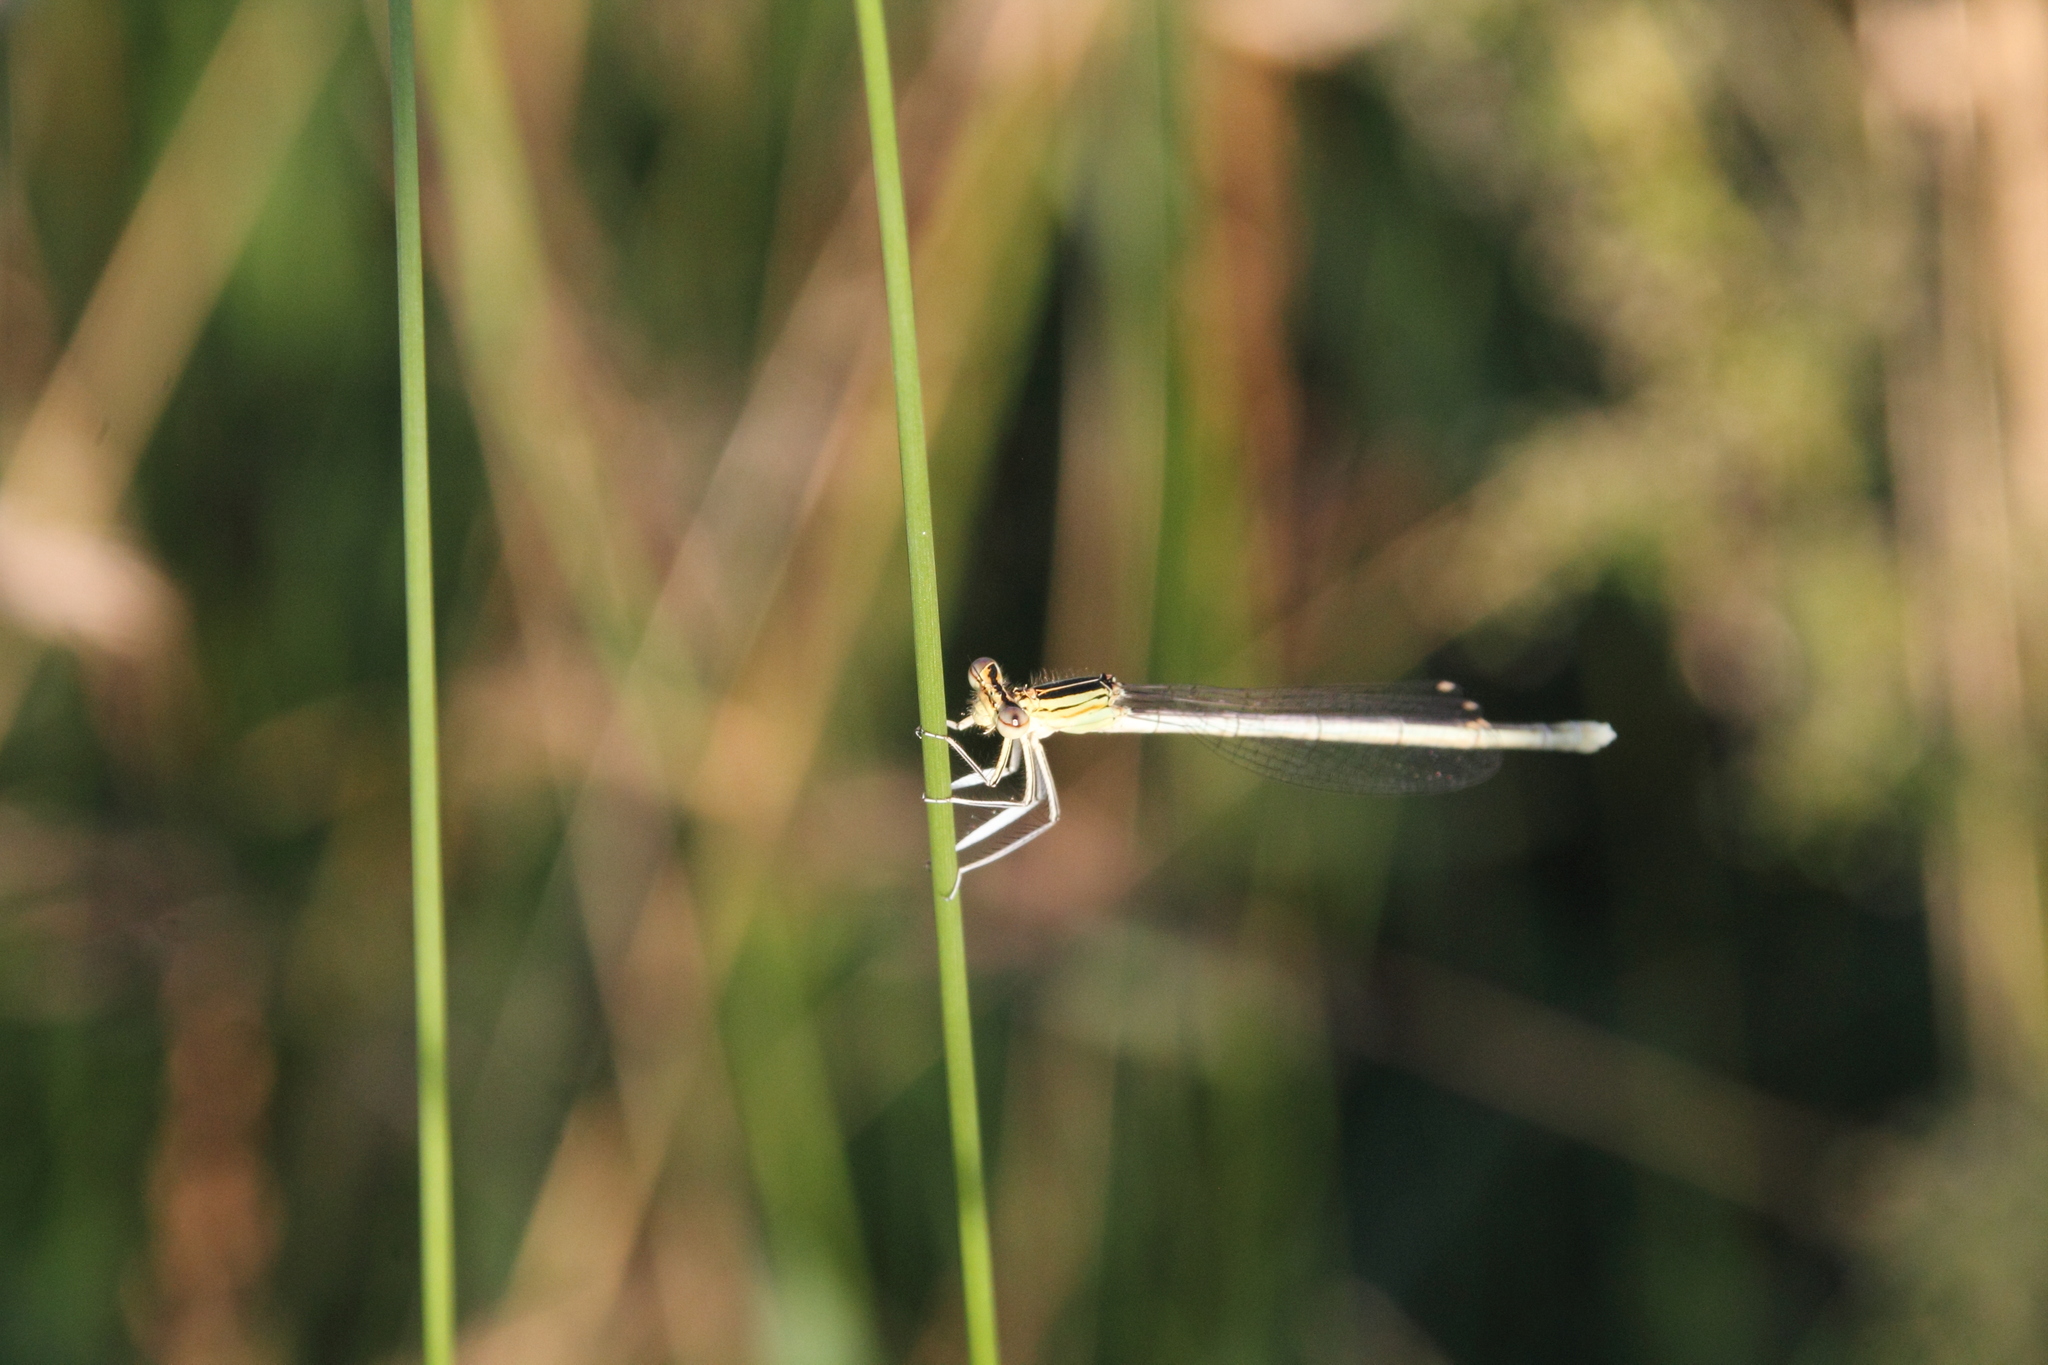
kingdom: Animalia
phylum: Arthropoda
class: Insecta
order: Odonata
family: Platycnemididae
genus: Platycnemis
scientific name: Platycnemis pennipes
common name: White-legged damselfly
